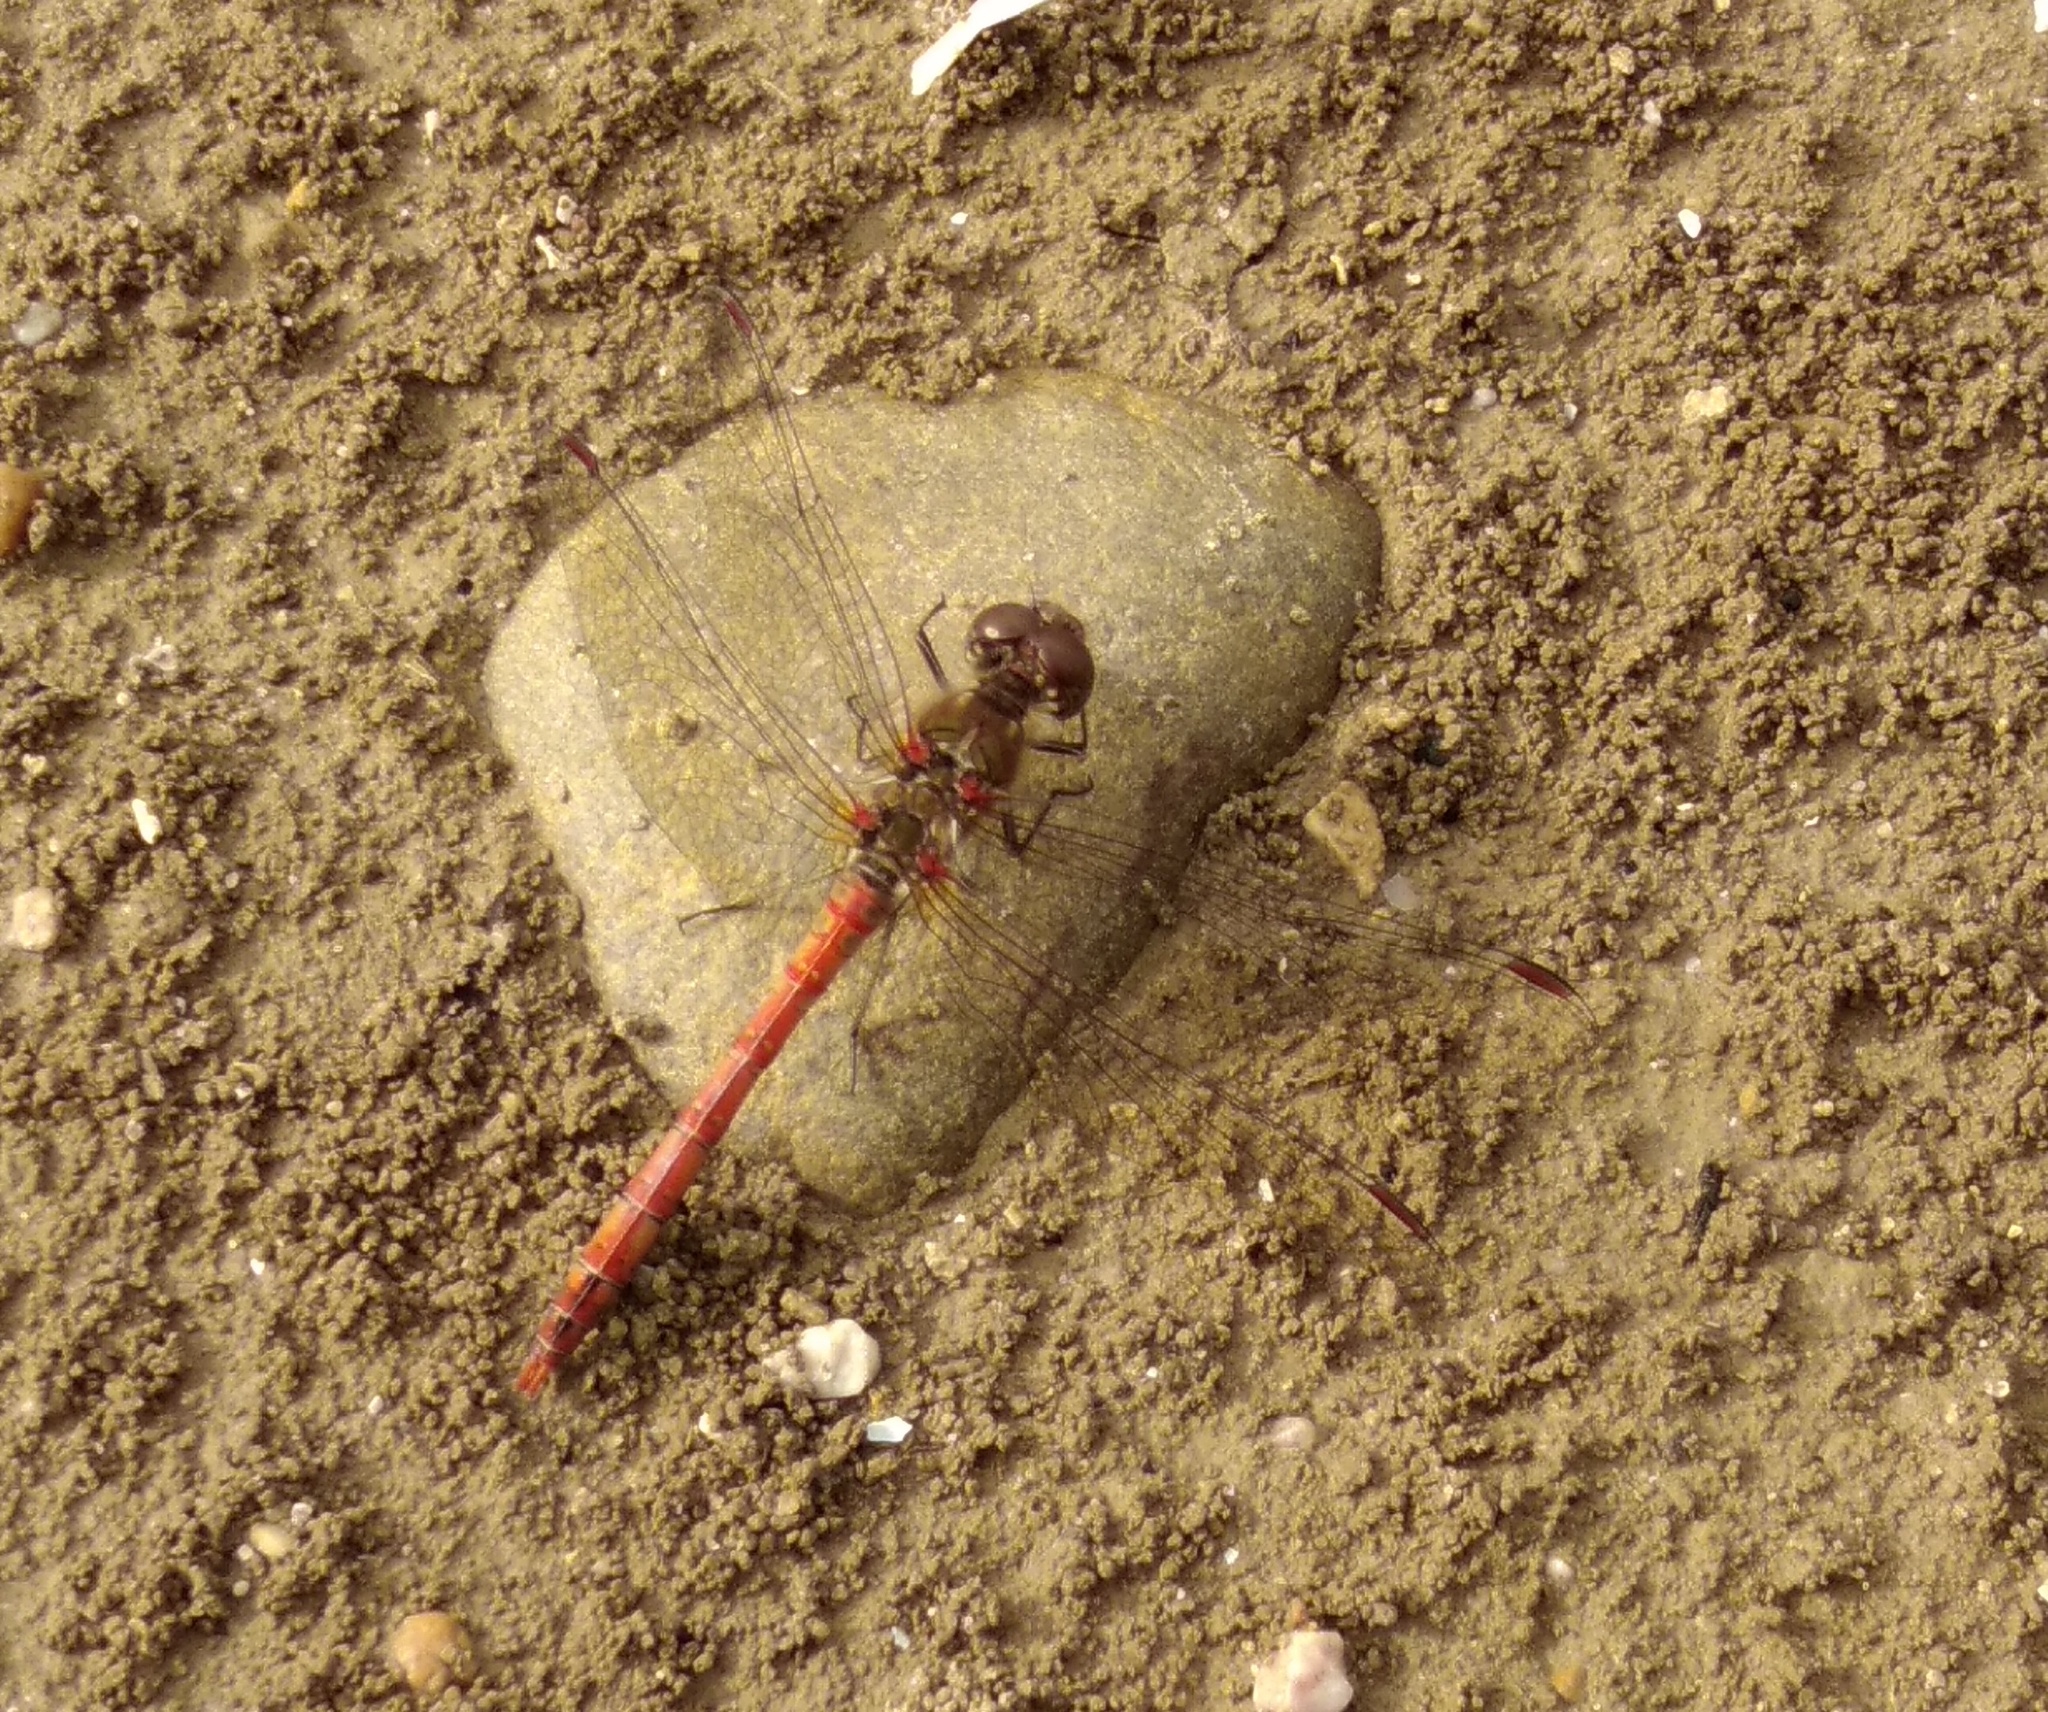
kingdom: Animalia
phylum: Arthropoda
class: Insecta
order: Odonata
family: Libellulidae
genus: Sympetrum
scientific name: Sympetrum striolatum
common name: Common darter
